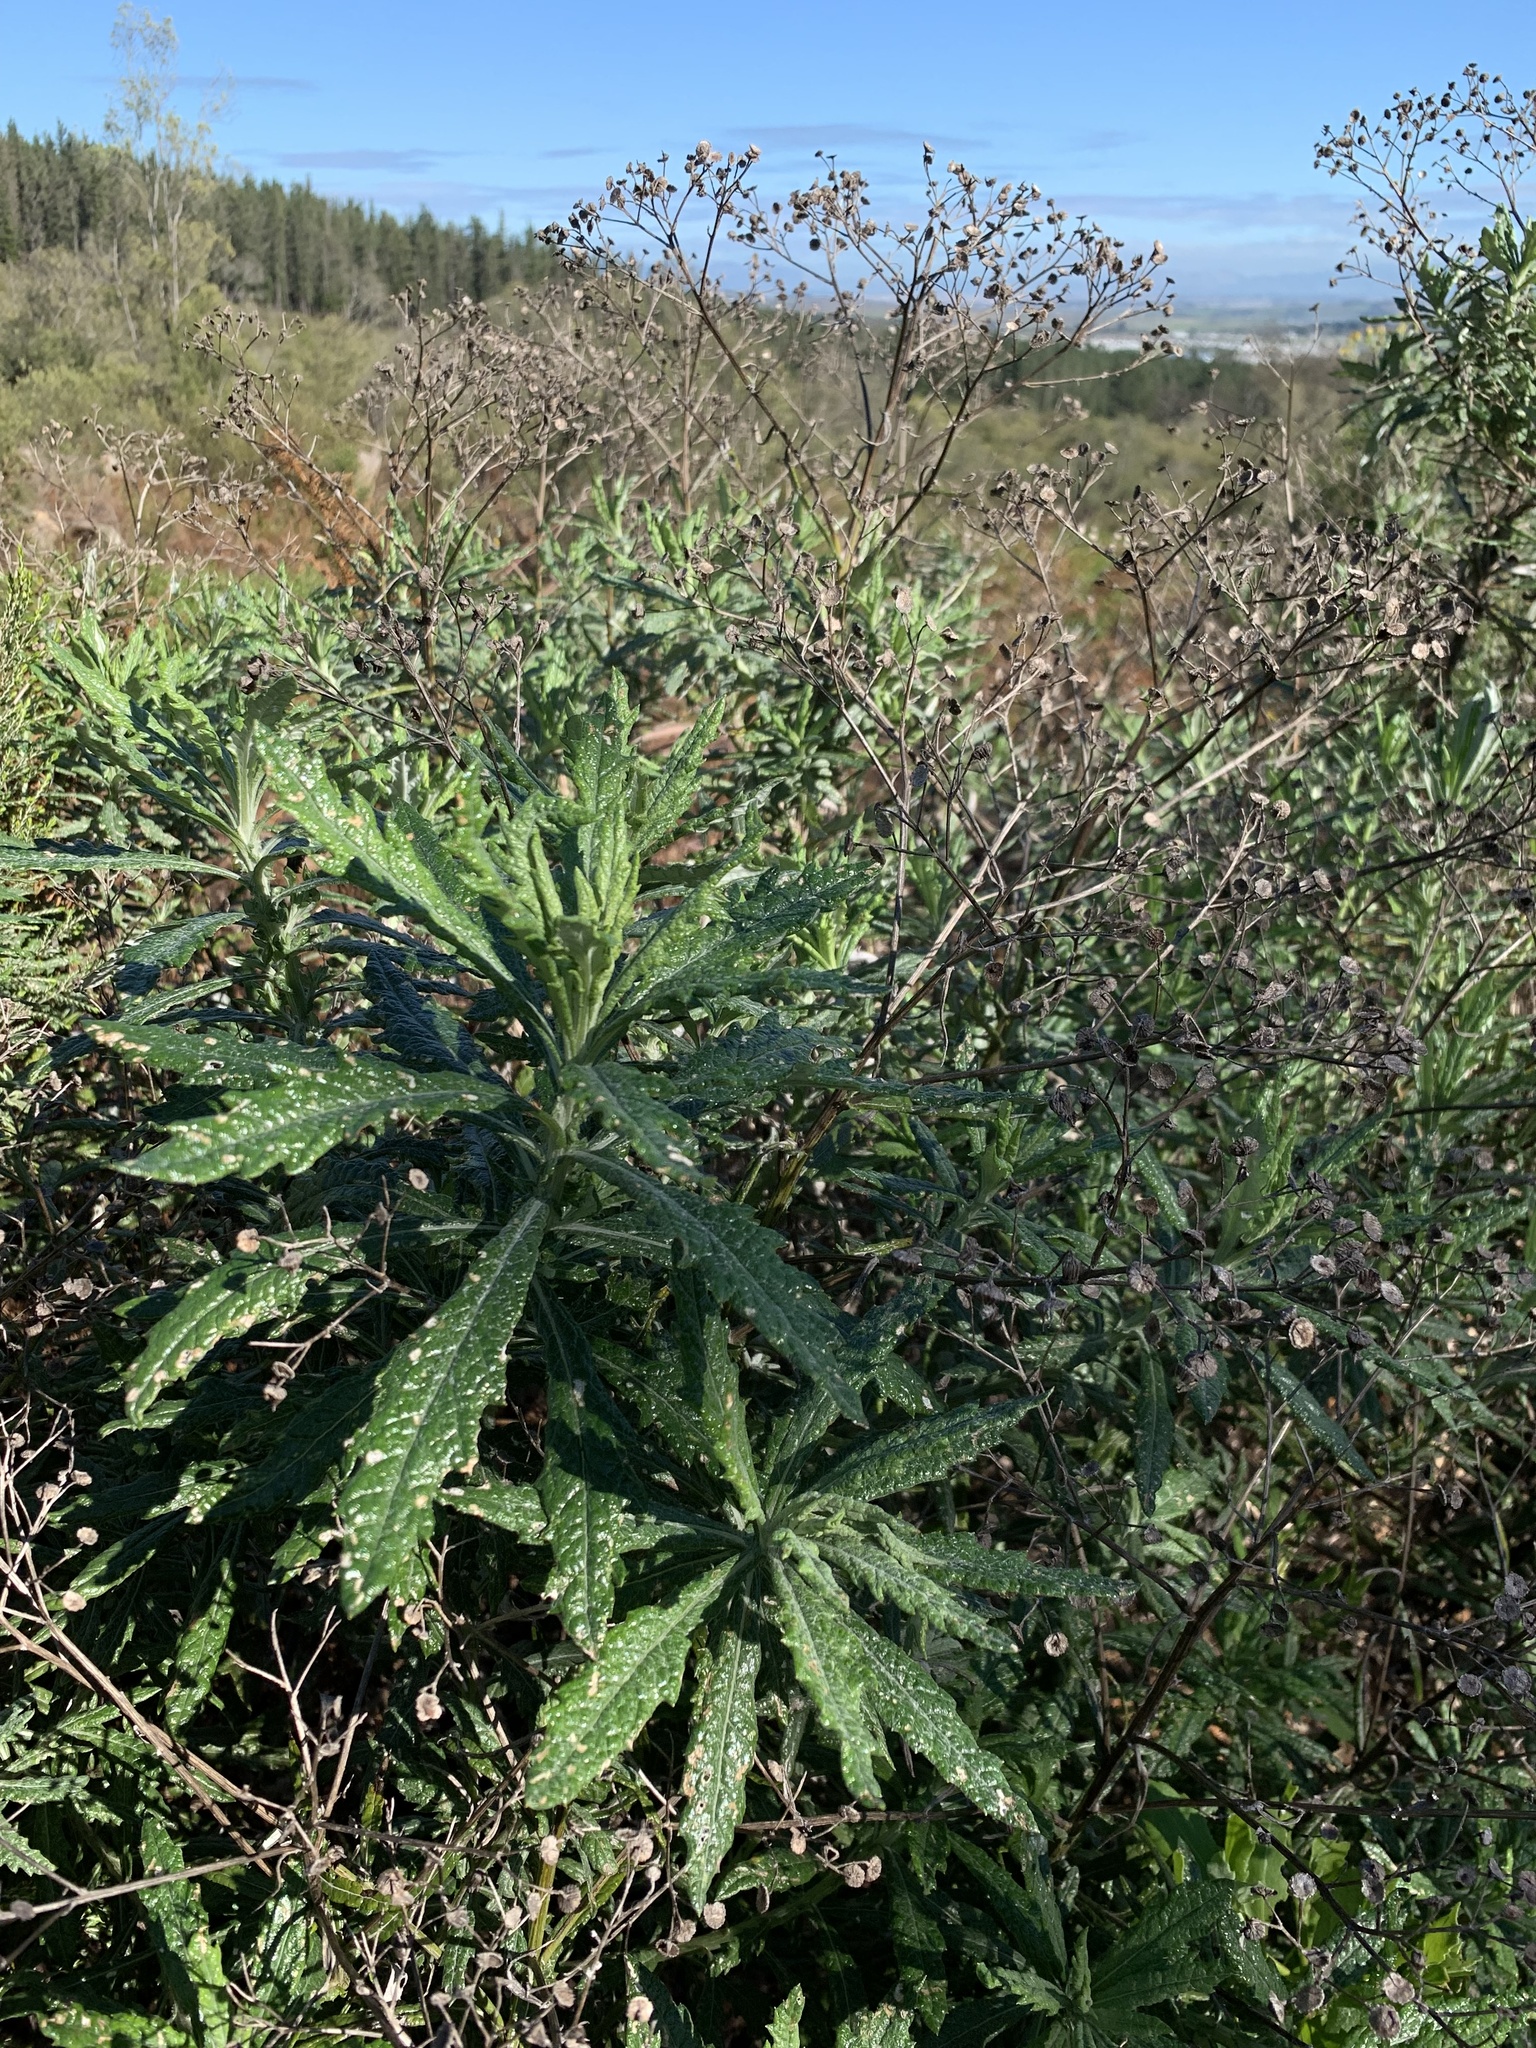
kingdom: Plantae
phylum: Tracheophyta
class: Magnoliopsida
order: Asterales
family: Asteraceae
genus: Senecio
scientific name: Senecio pterophorus
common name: Shoddy ragwort
